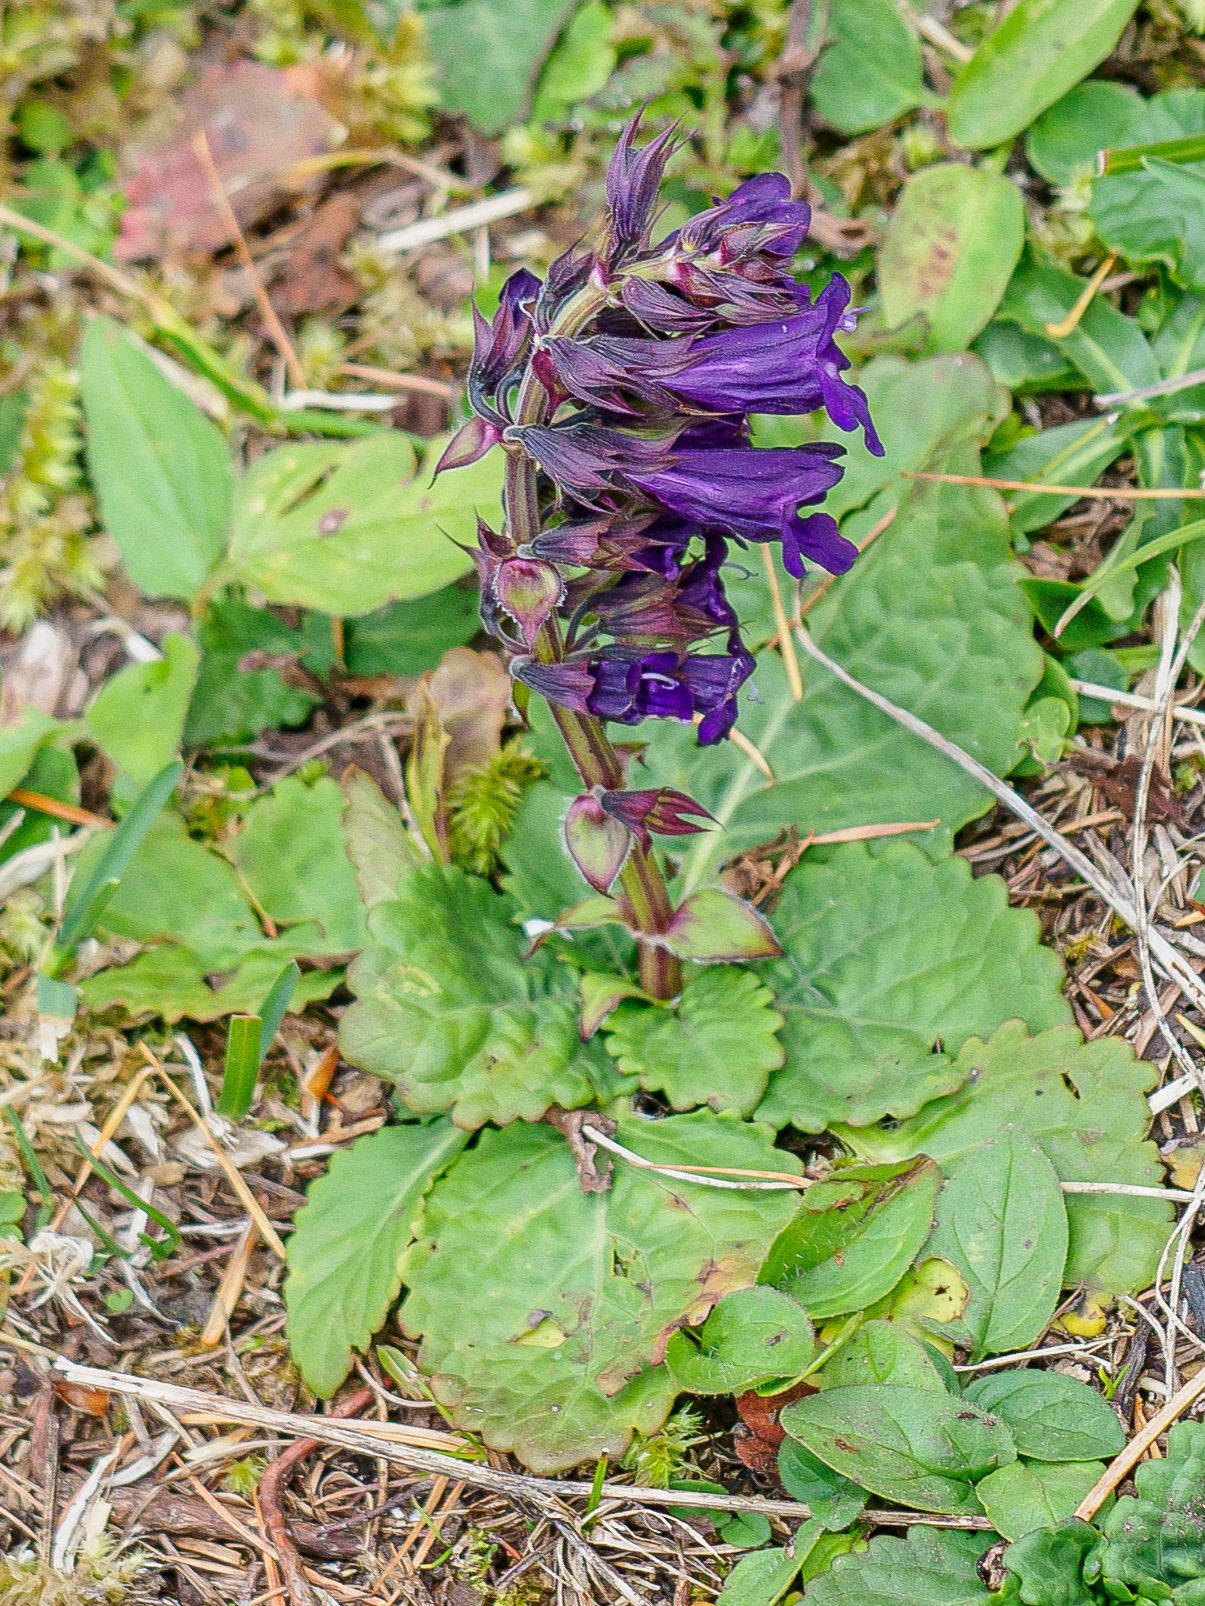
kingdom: Plantae
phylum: Tracheophyta
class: Magnoliopsida
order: Lamiales
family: Lamiaceae
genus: Horminum
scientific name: Horminum pyrenaicum
